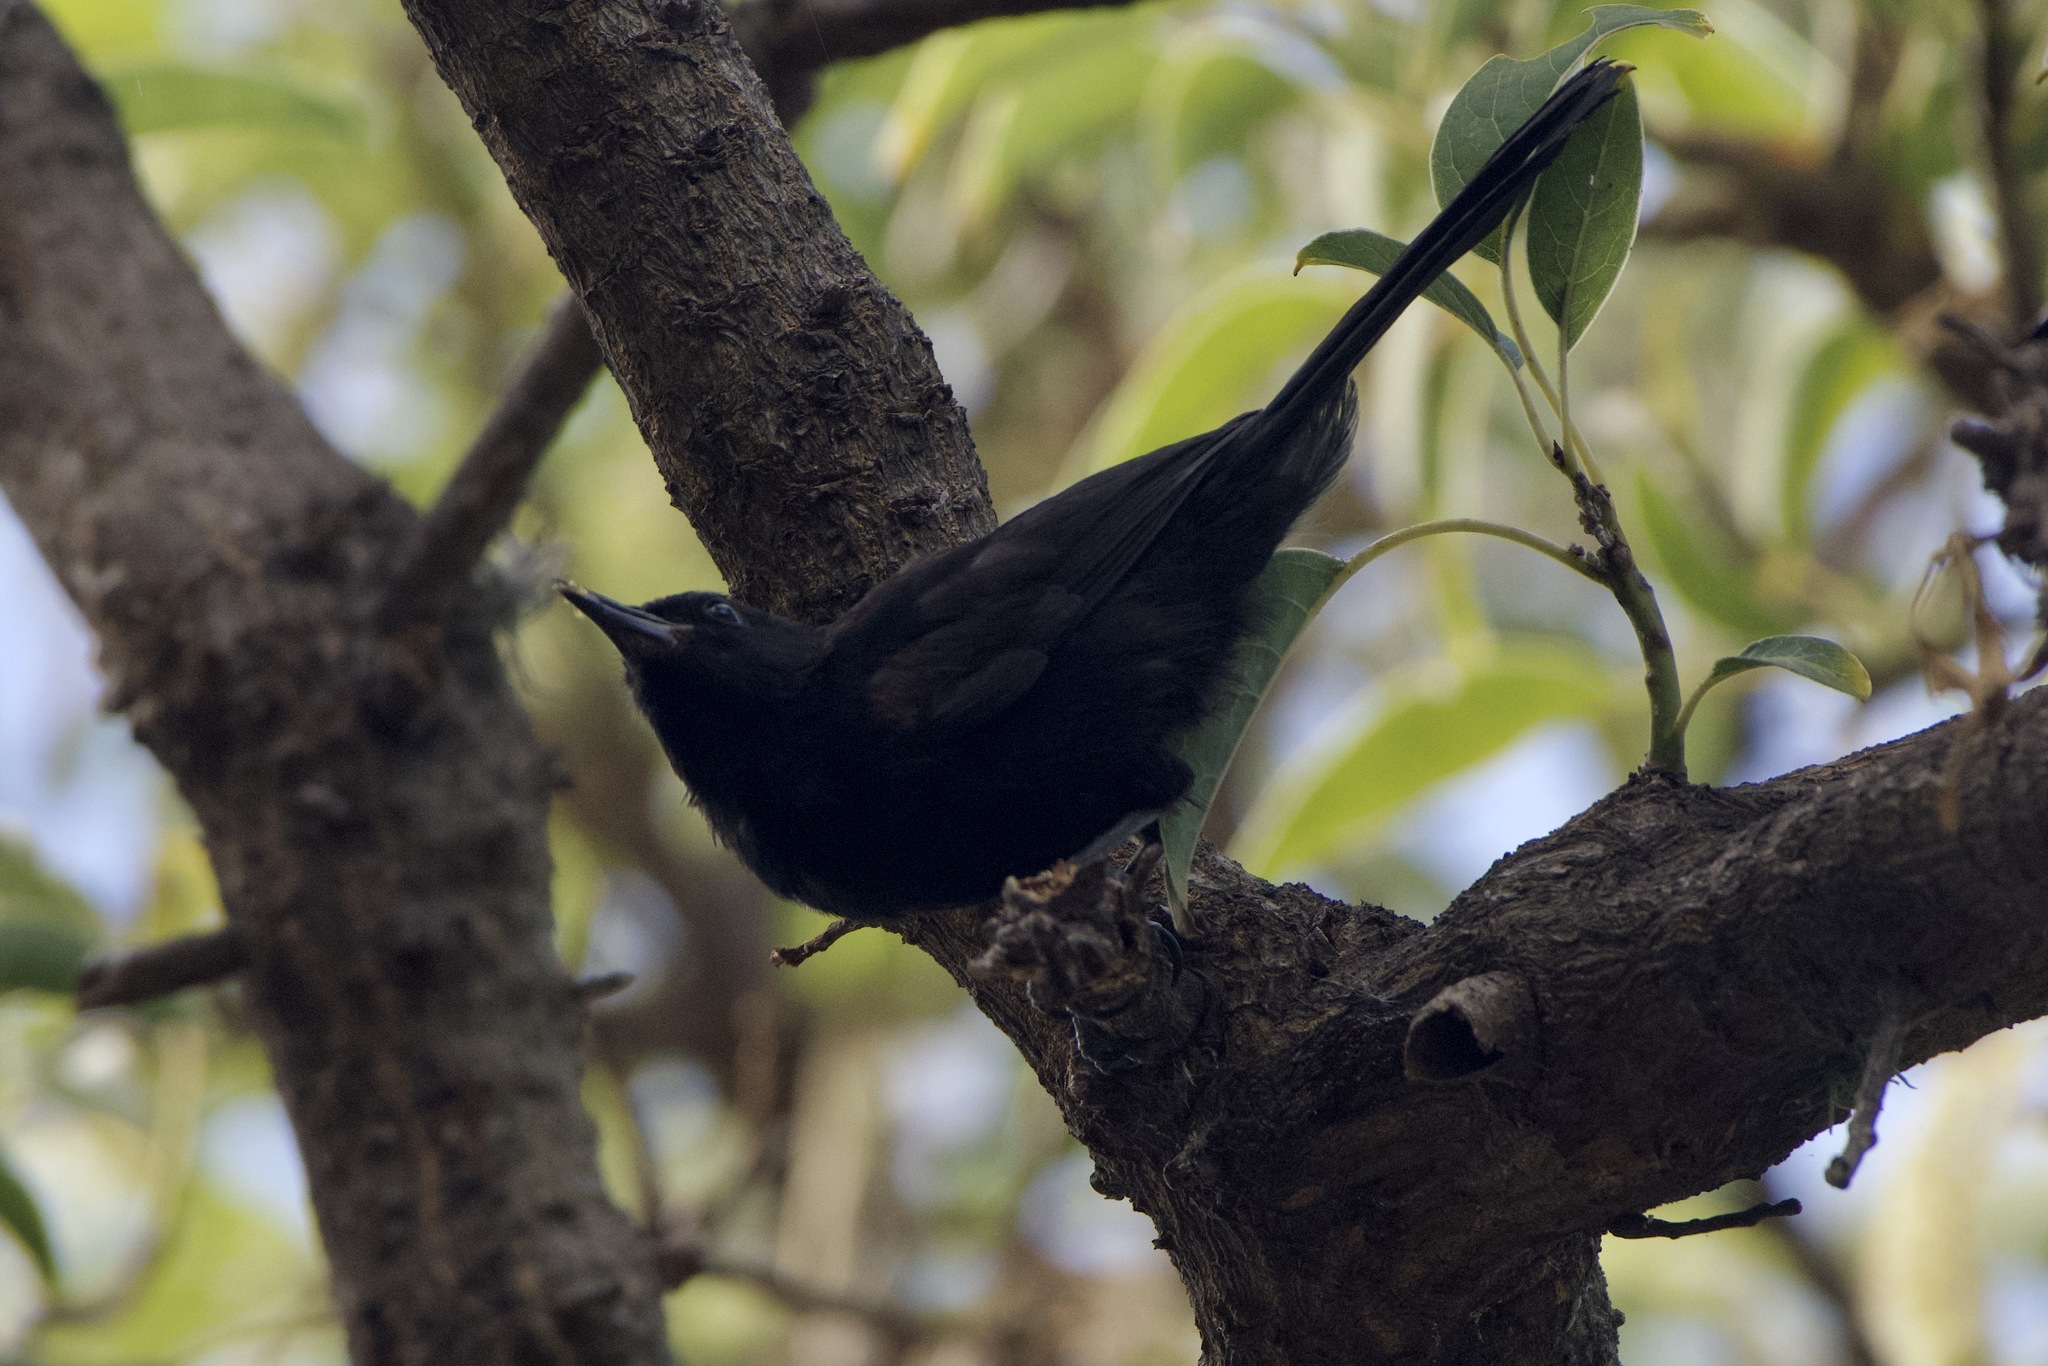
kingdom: Animalia
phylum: Chordata
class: Aves
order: Passeriformes
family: Icteridae
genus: Icterus
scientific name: Icterus cayanensis
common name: Epaulet oriole
